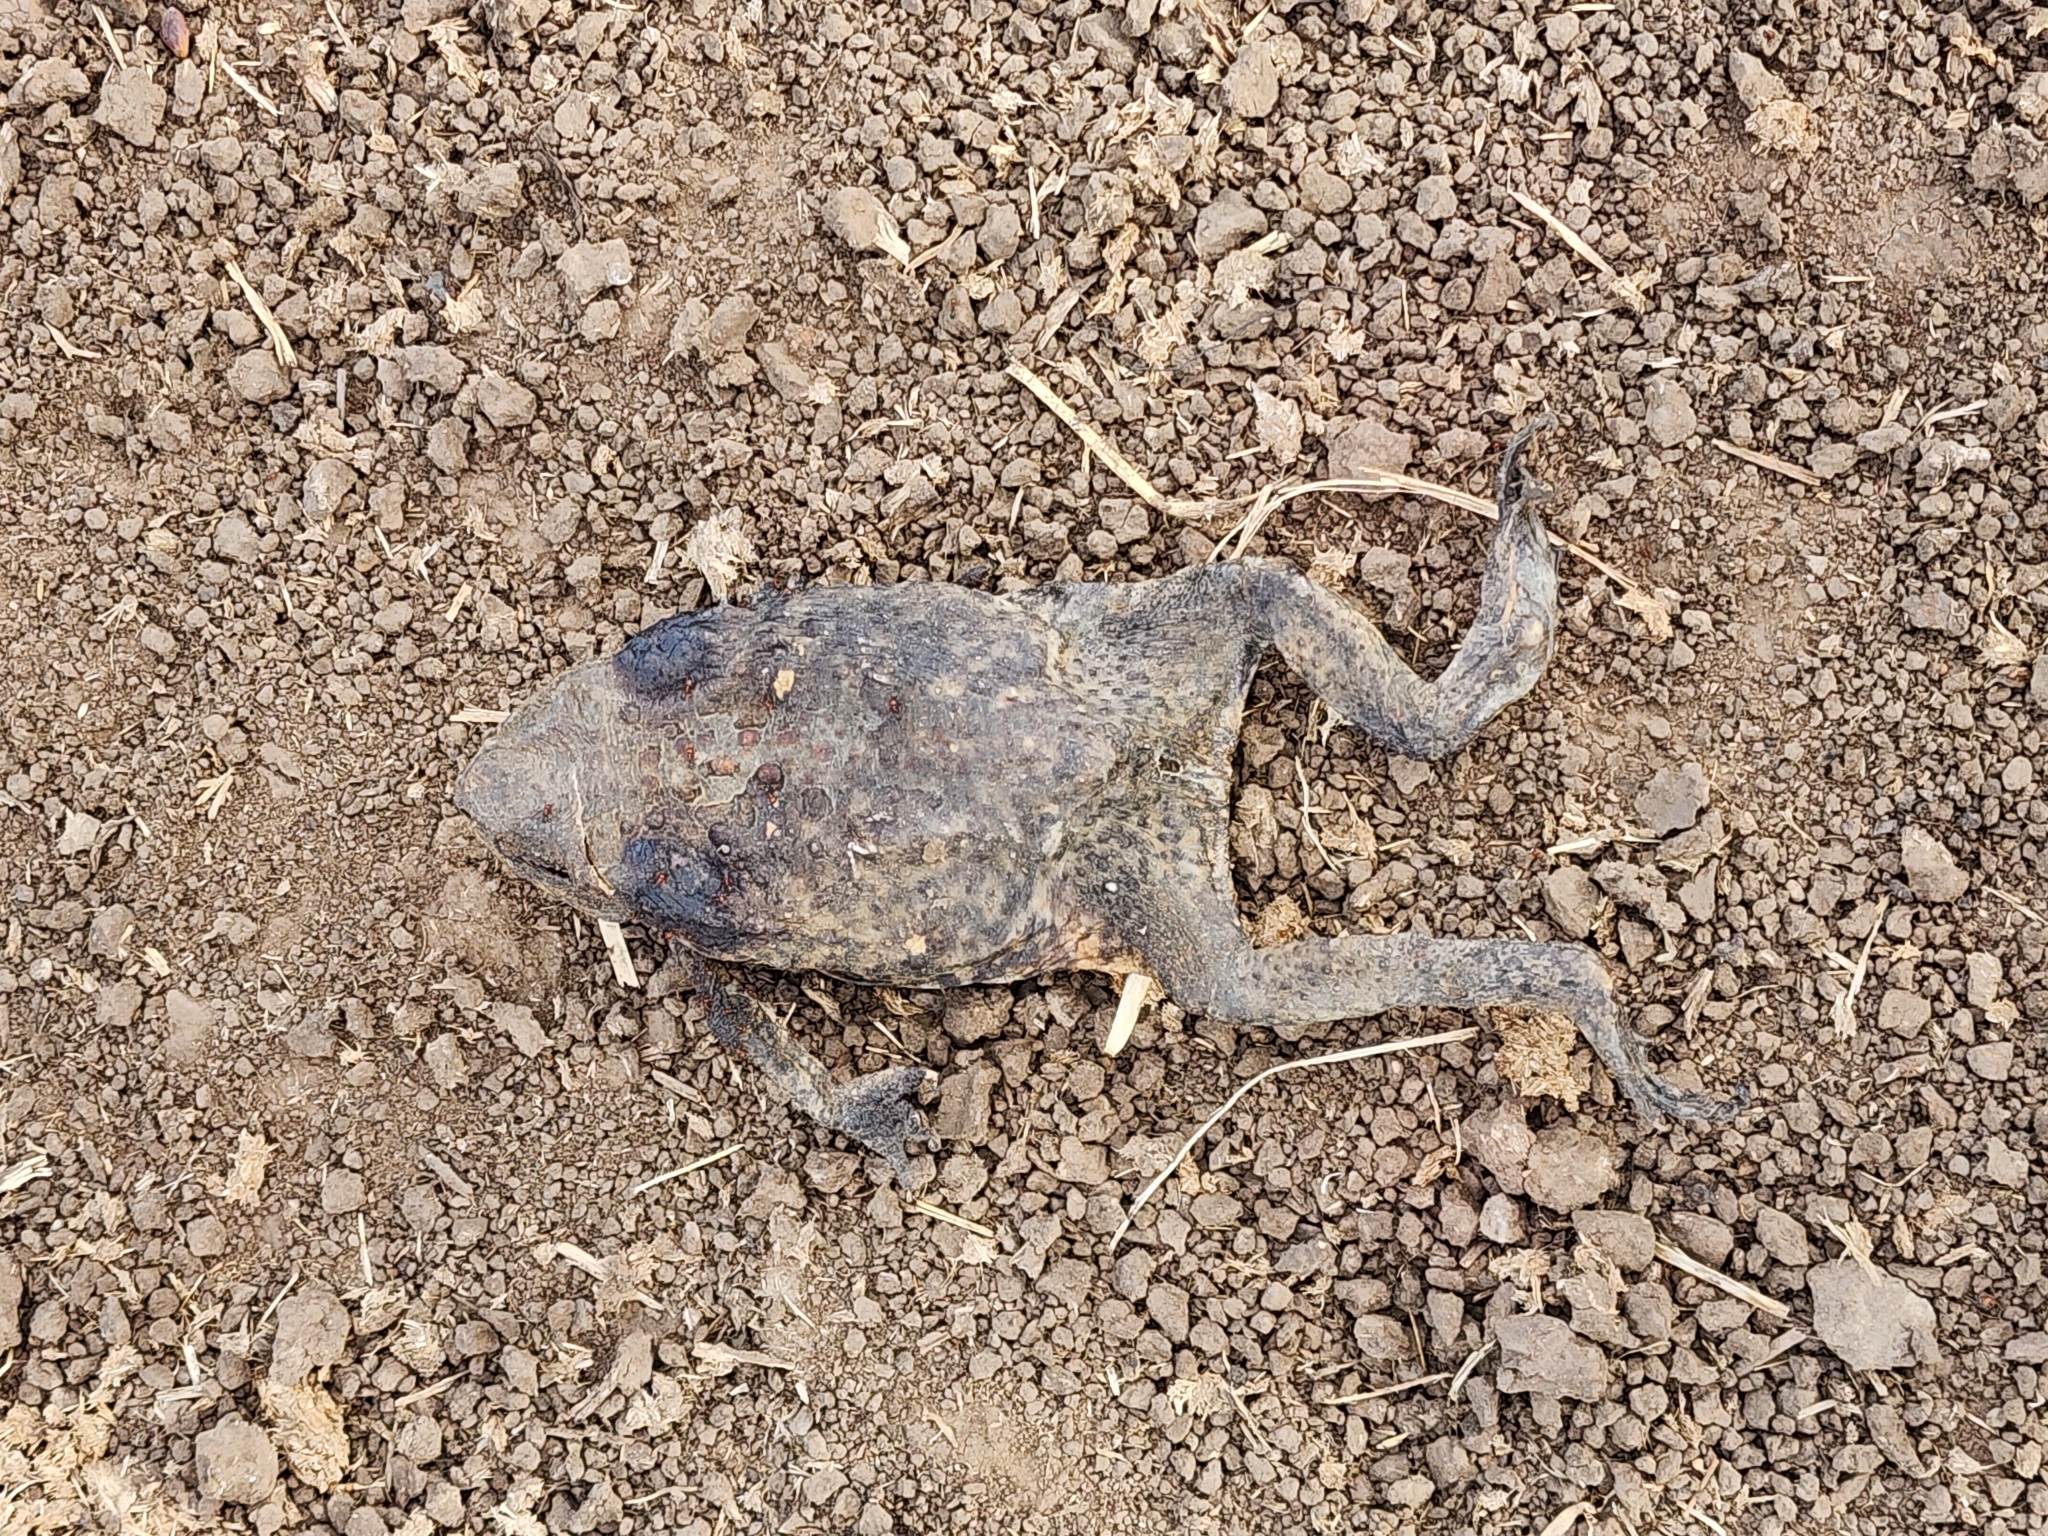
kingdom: Animalia
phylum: Chordata
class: Amphibia
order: Anura
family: Bufonidae
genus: Rhinella
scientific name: Rhinella marina
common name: Cane toad
